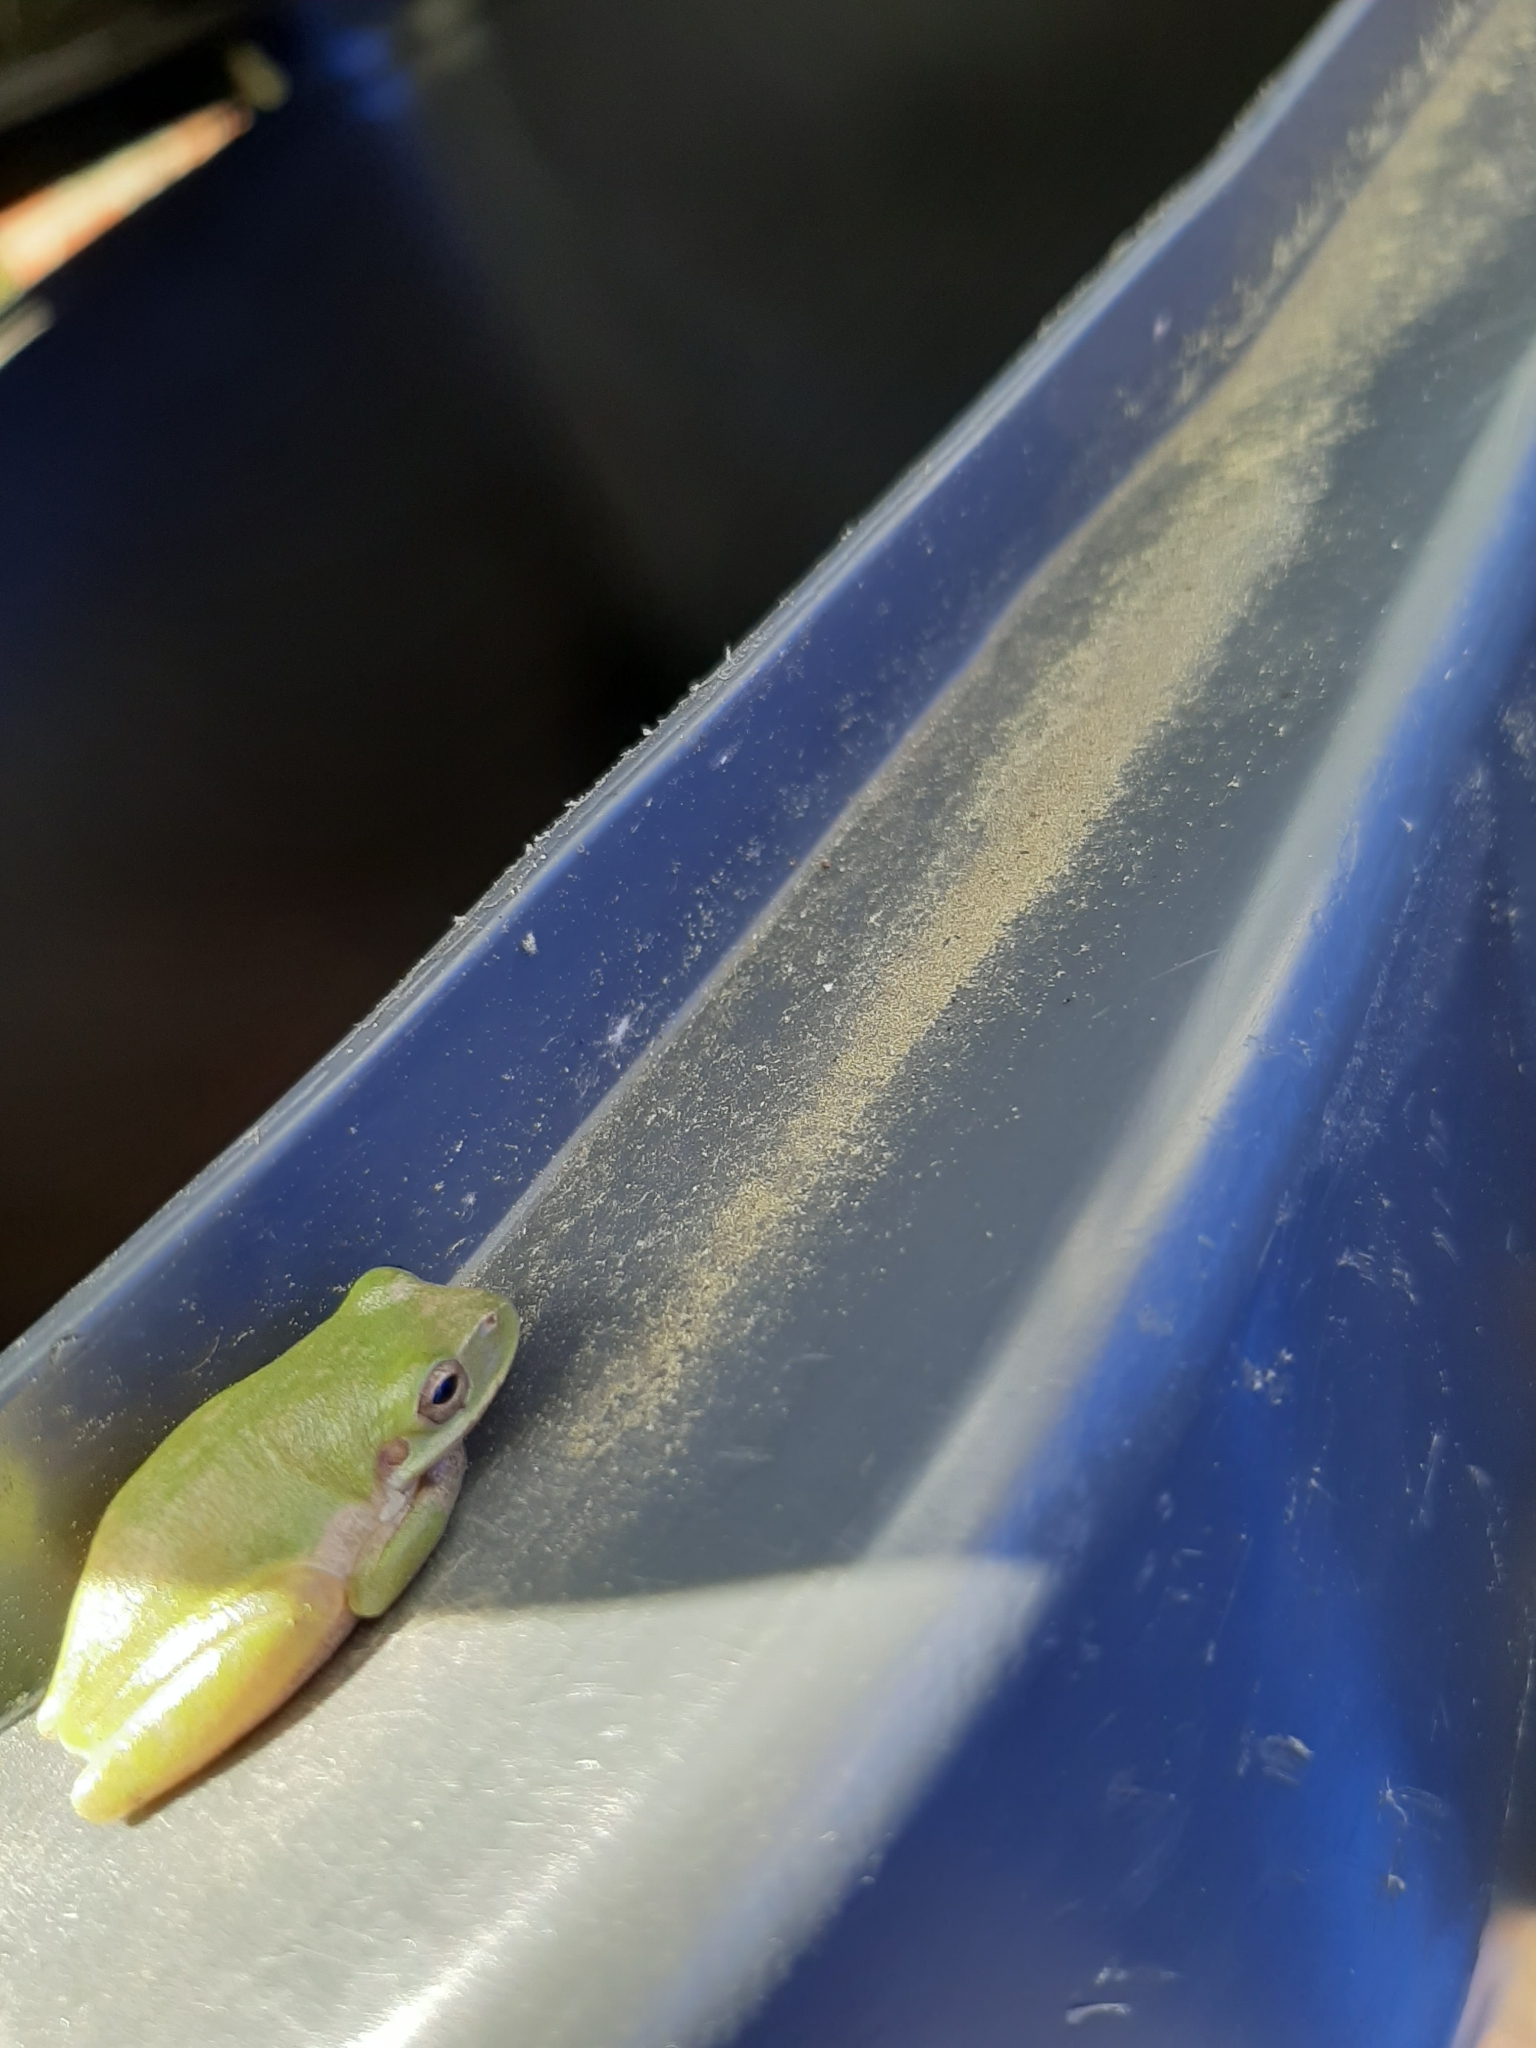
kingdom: Animalia
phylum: Chordata
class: Amphibia
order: Anura
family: Hylidae
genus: Dryophytes
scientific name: Dryophytes squirellus
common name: Squirrel treefrog
